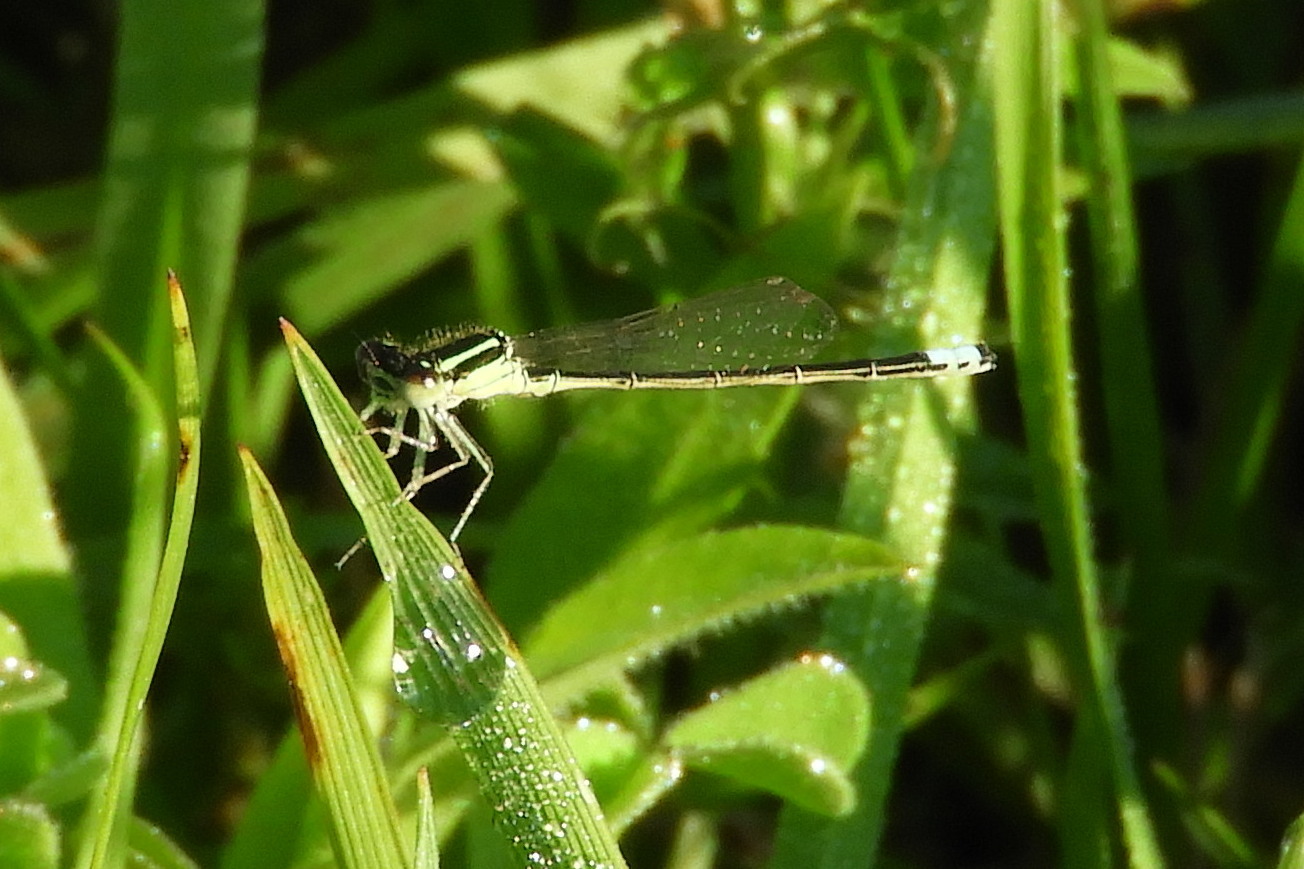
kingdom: Animalia
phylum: Arthropoda
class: Insecta
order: Odonata
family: Coenagrionidae
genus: Ischnura
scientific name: Ischnura verticalis
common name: Eastern forktail
